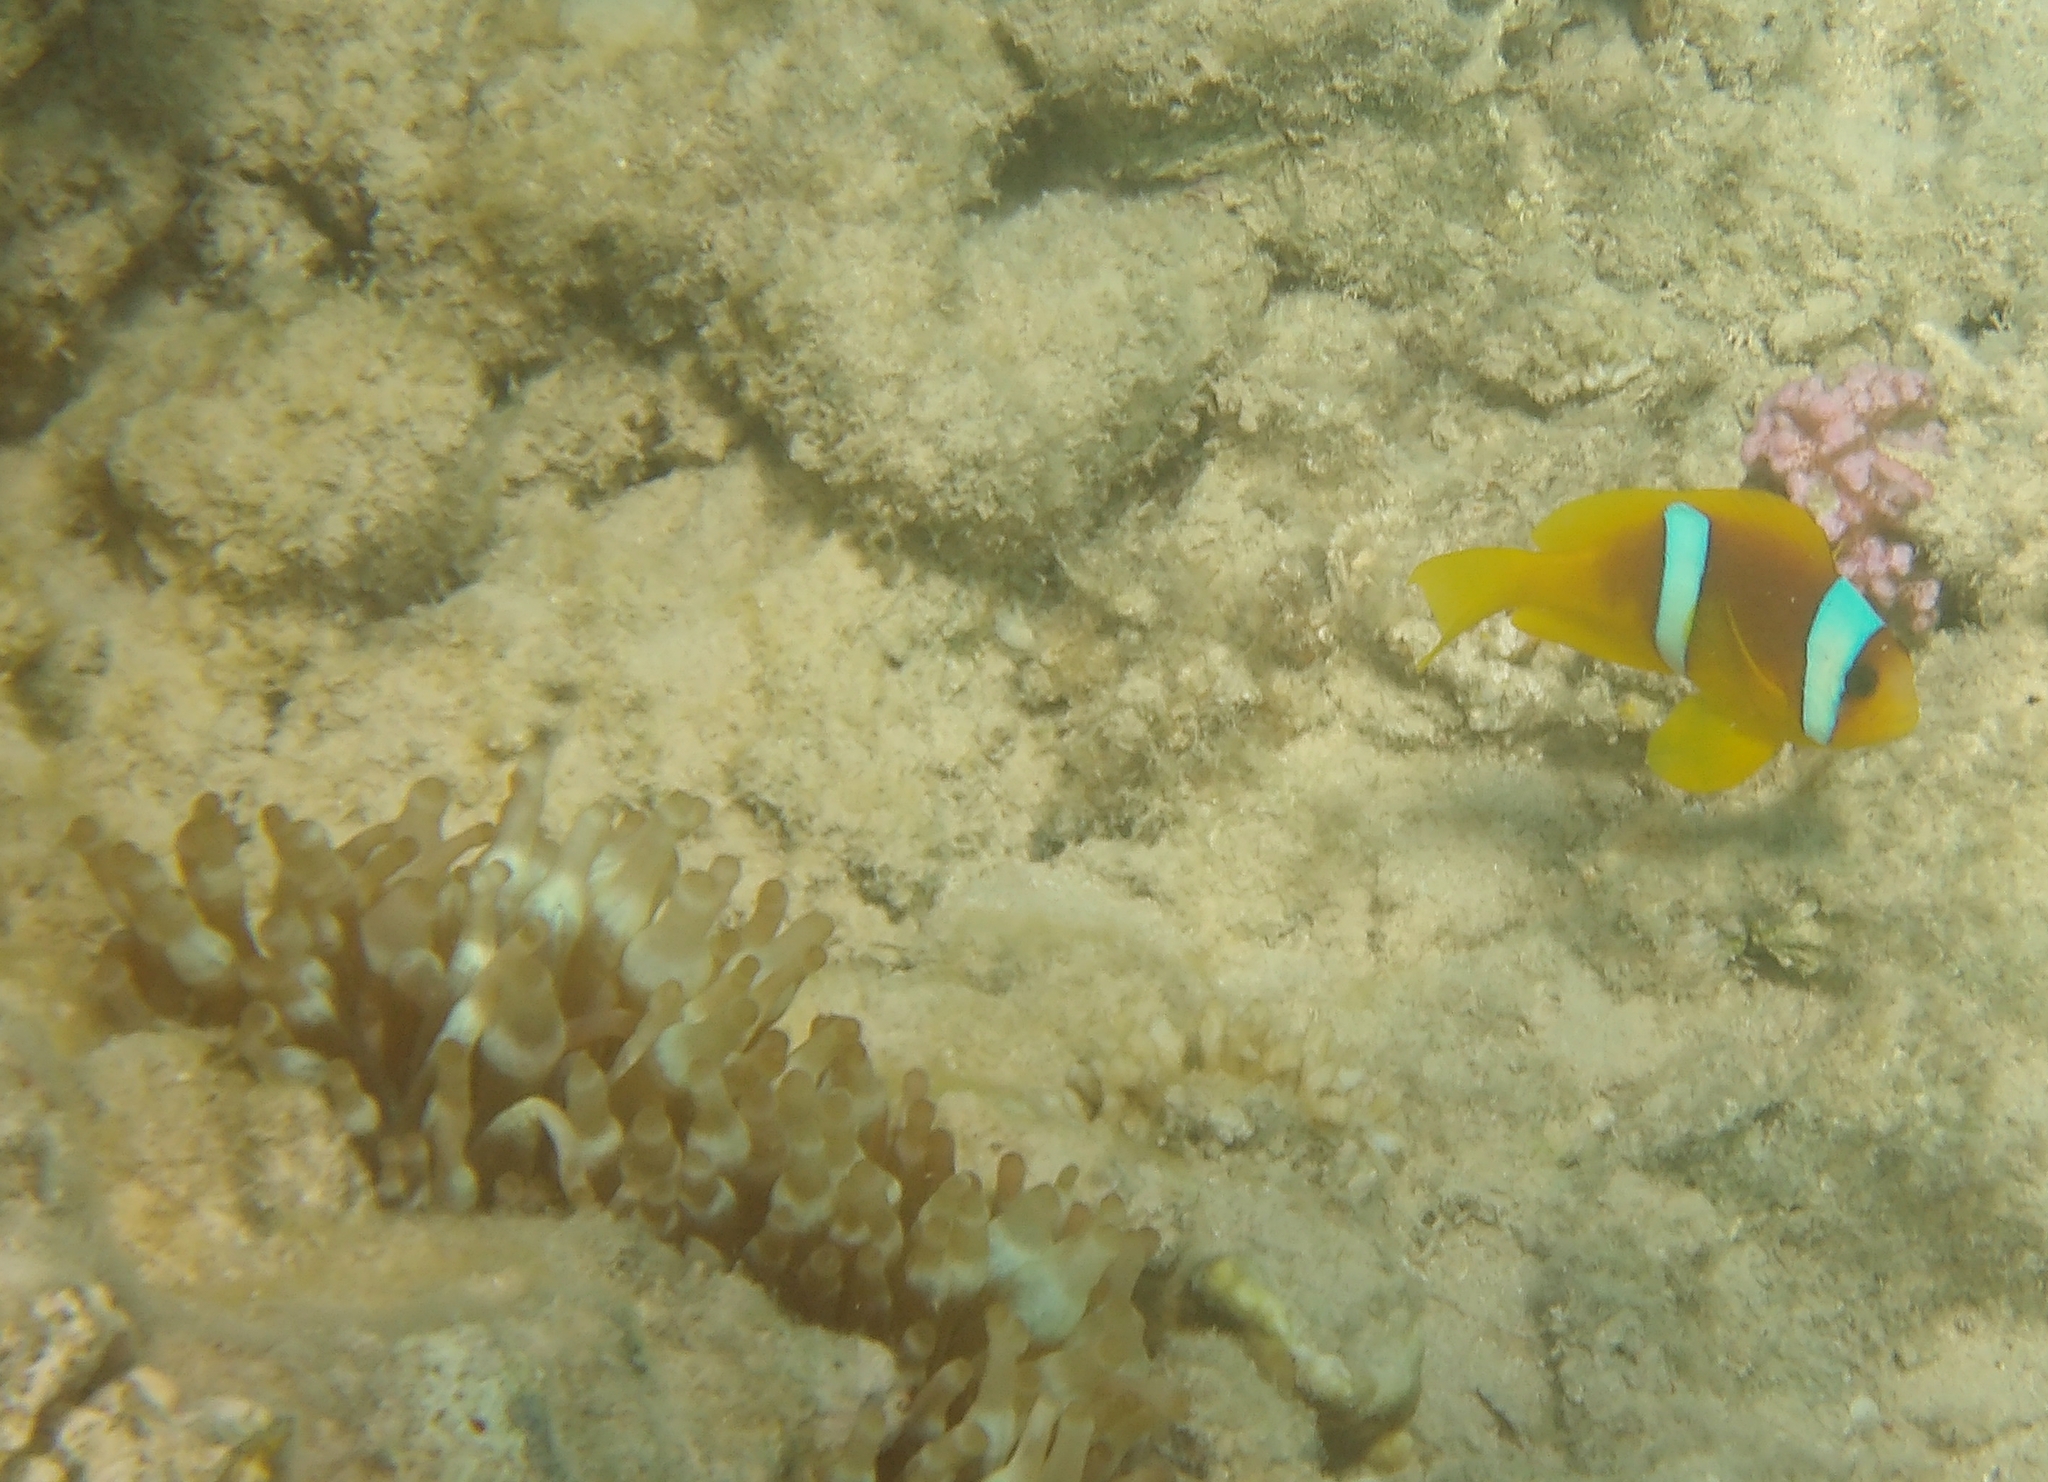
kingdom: Animalia
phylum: Chordata
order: Perciformes
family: Pomacentridae
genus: Amphiprion
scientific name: Amphiprion bicinctus
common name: Two-banded anemonefish
